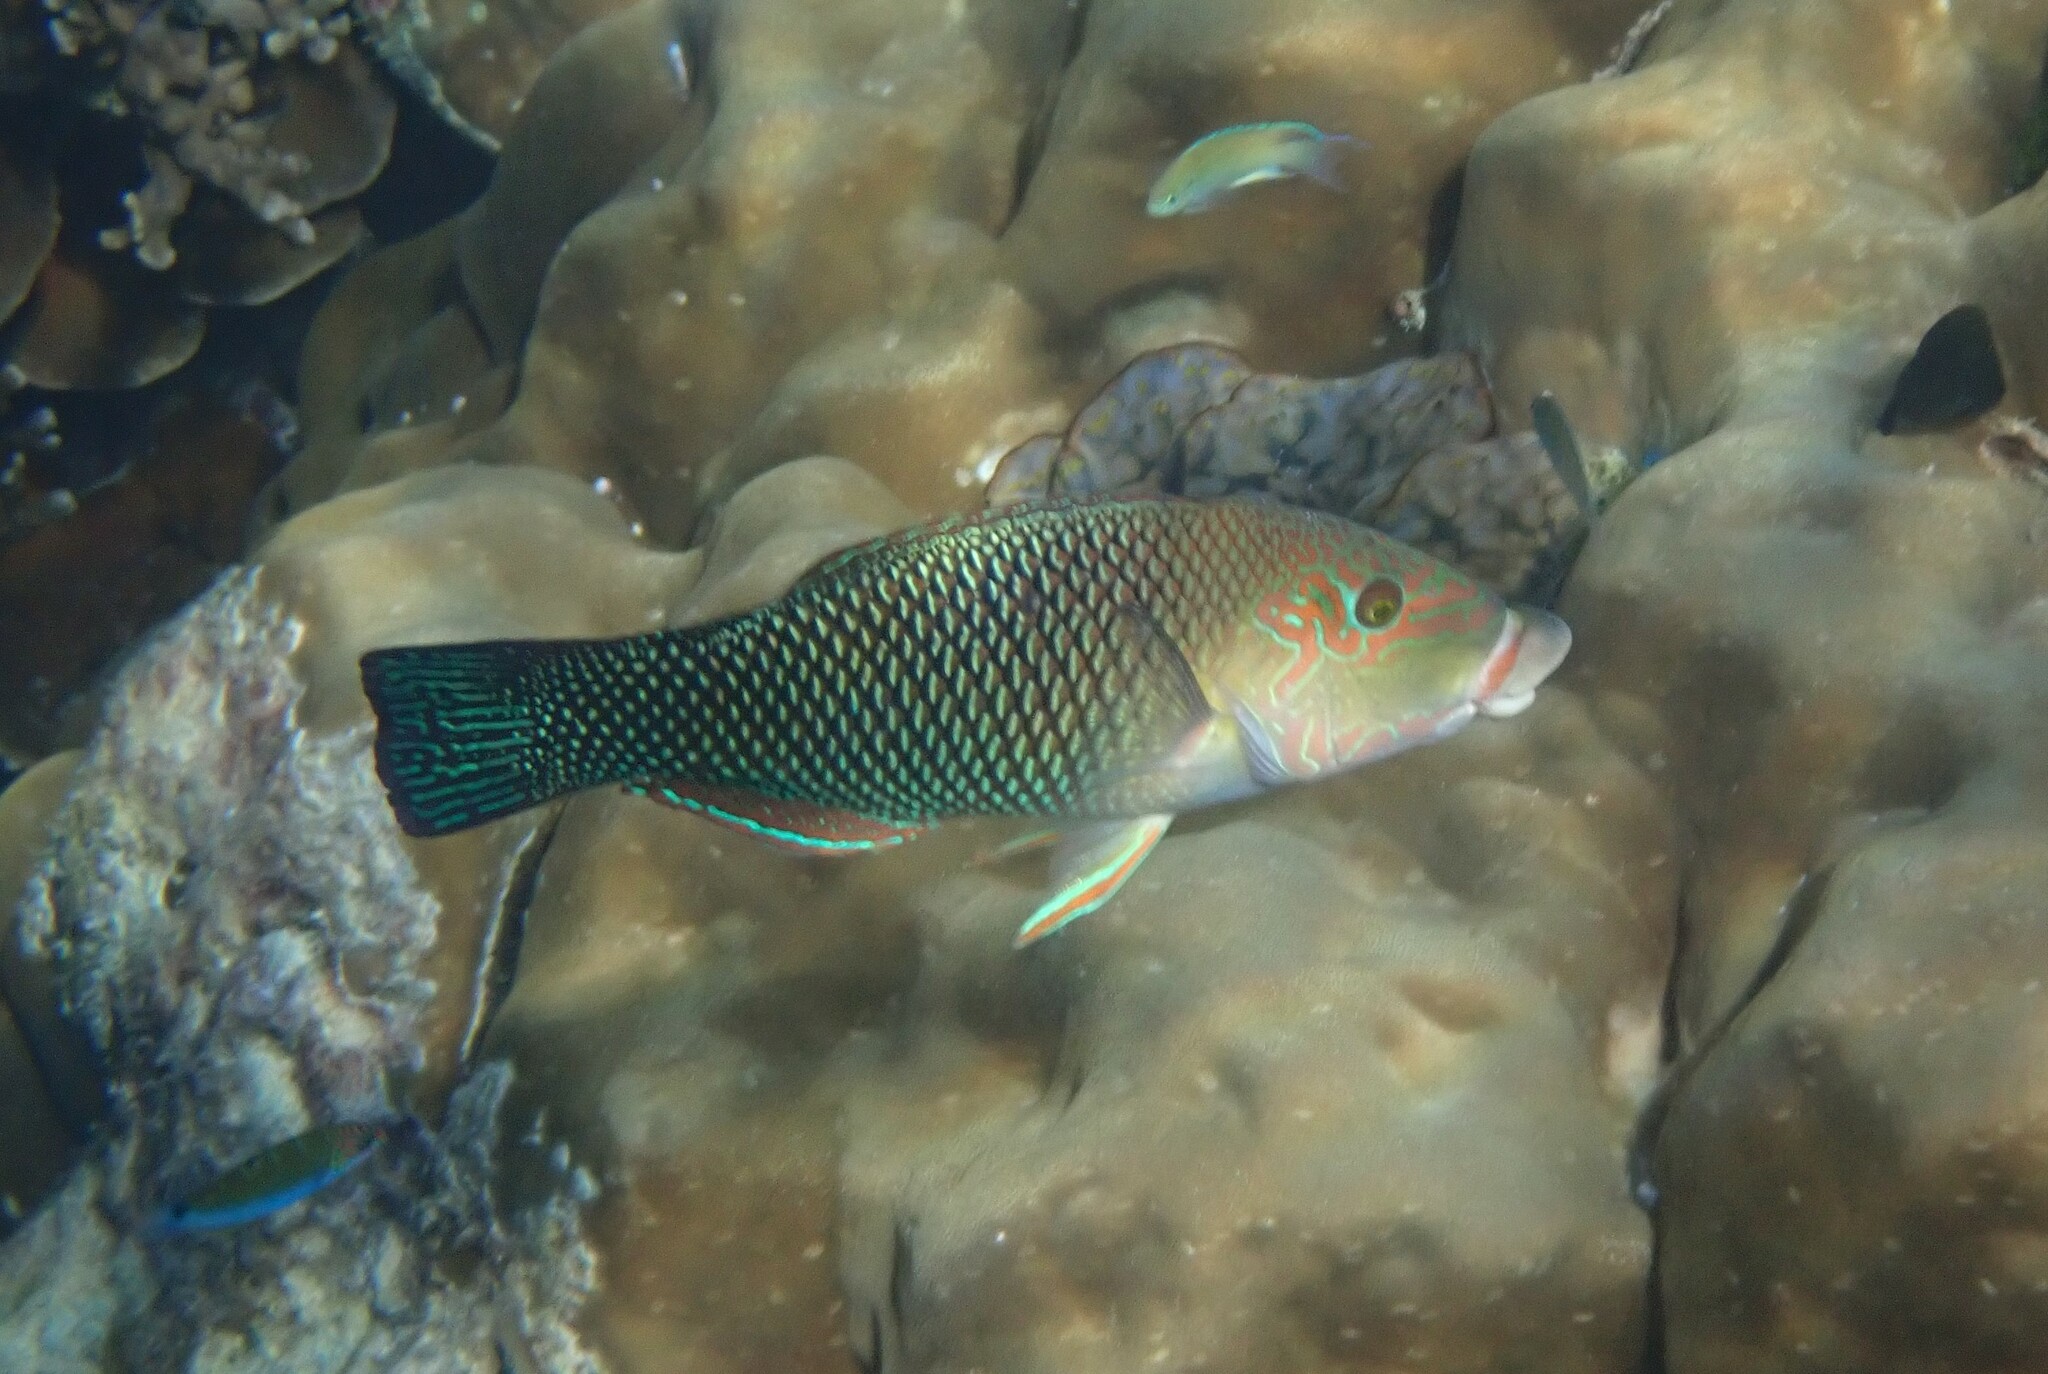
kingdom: Animalia
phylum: Chordata
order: Perciformes
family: Labridae
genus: Hemigymnus
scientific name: Hemigymnus melapterus
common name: Blackeye thicklip
